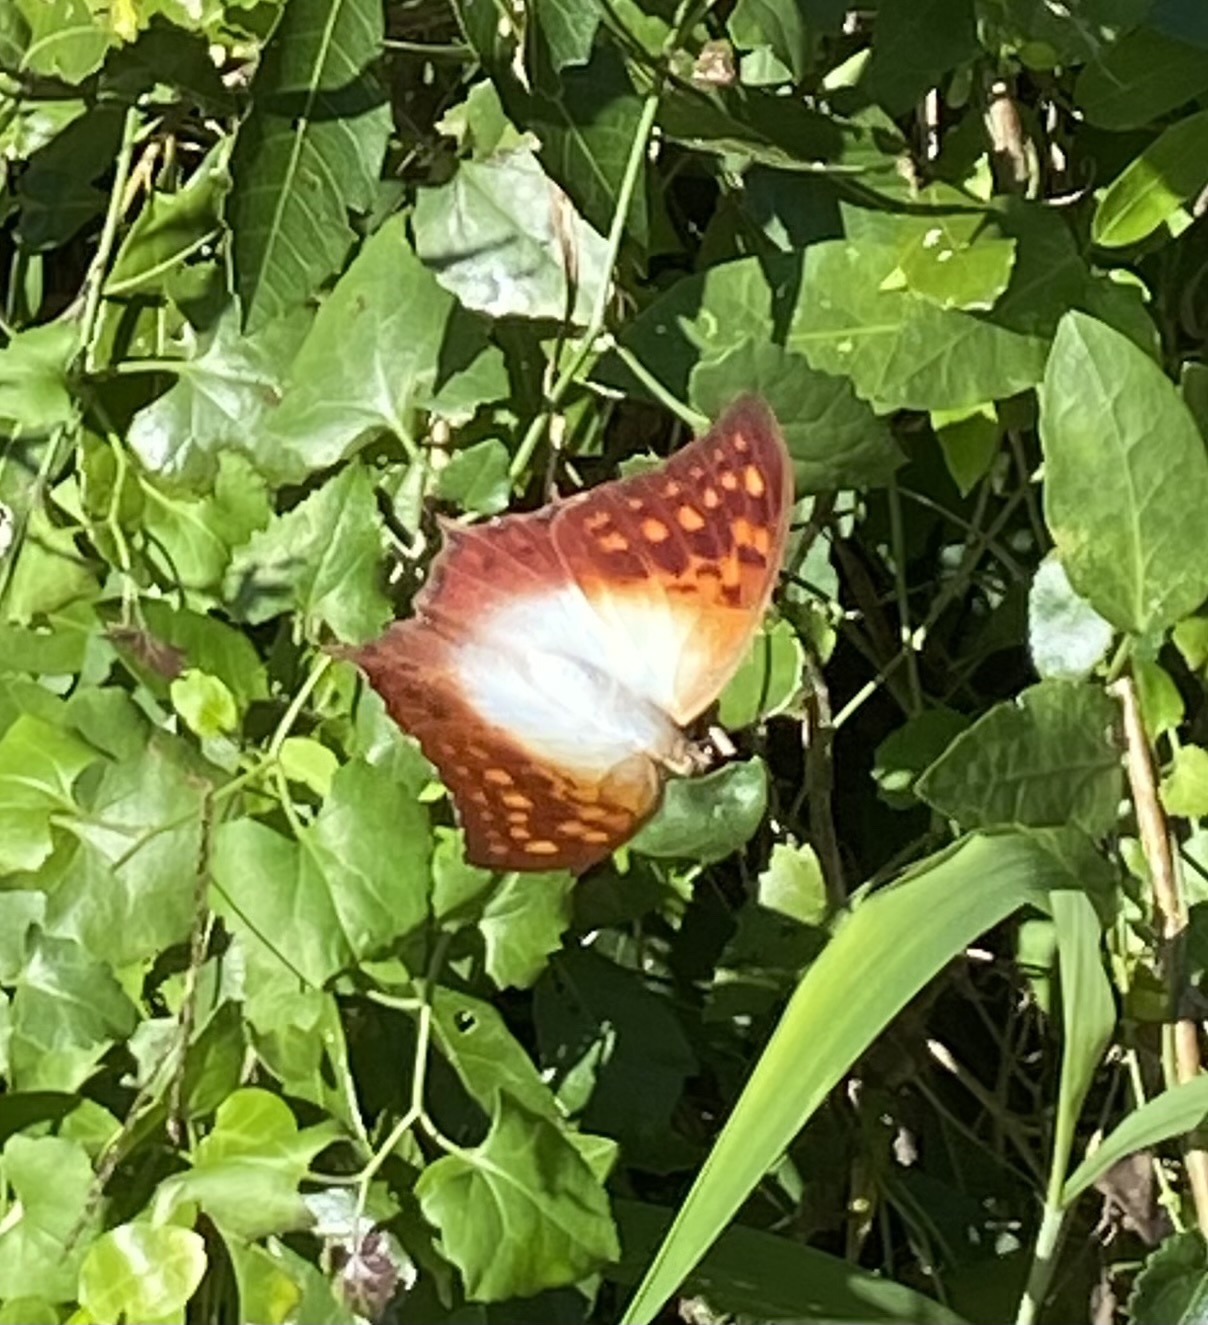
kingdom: Animalia
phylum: Arthropoda
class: Insecta
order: Lepidoptera
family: Nymphalidae
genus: Charaxes
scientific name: Charaxes varanes
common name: Common pearl charaxes
